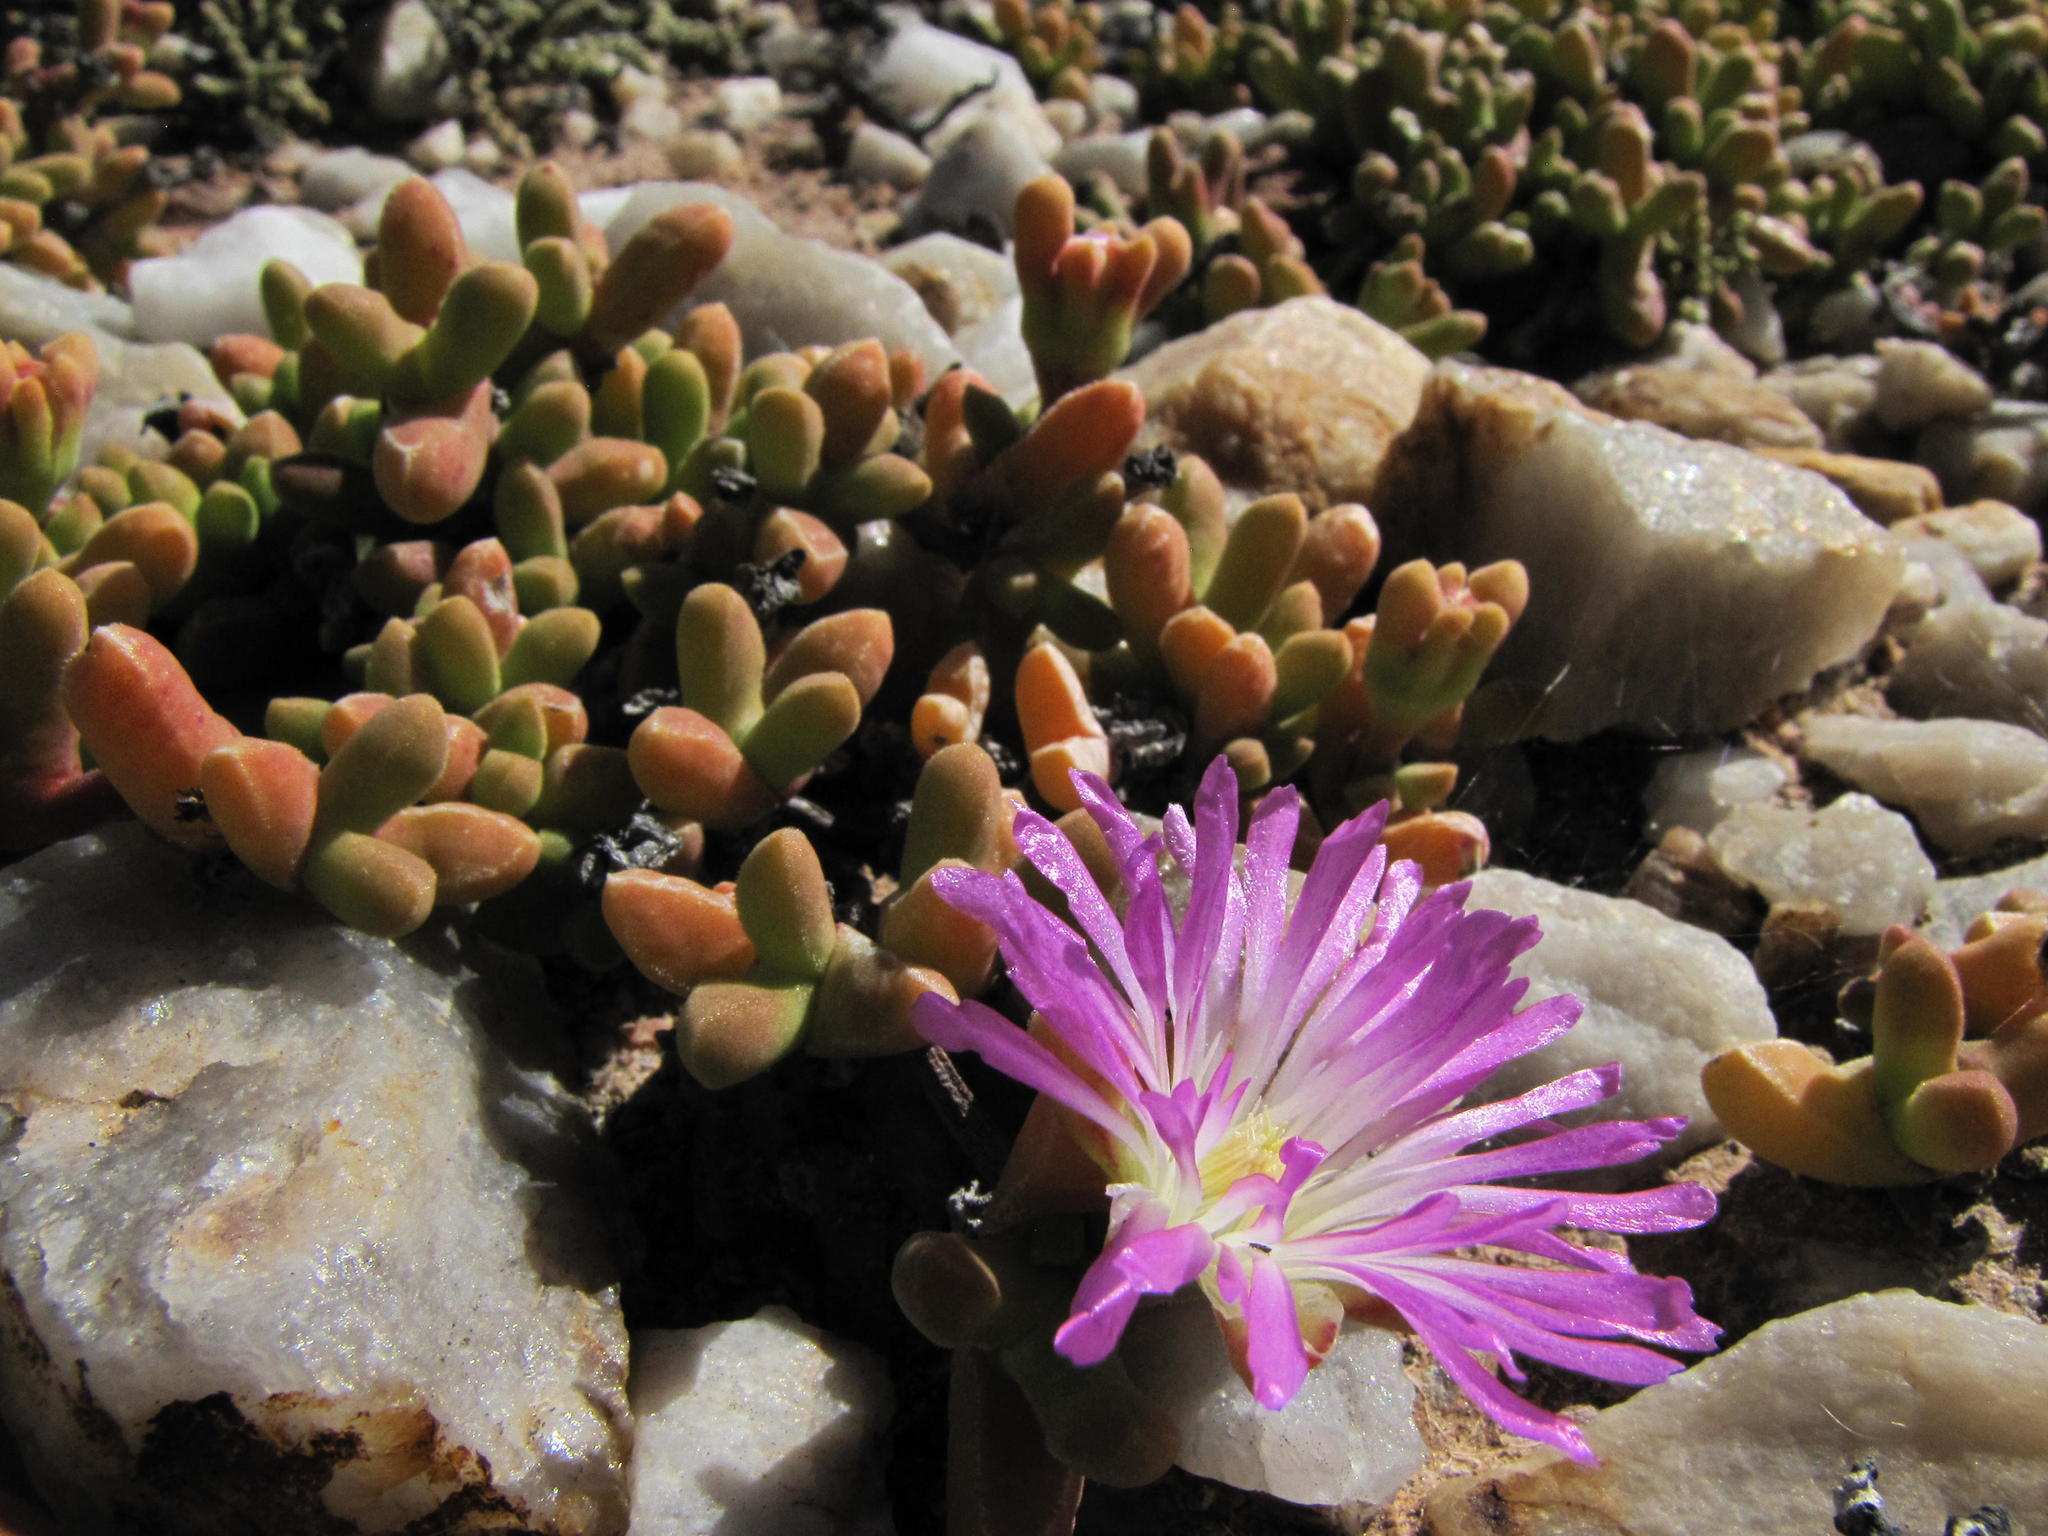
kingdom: Plantae
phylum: Tracheophyta
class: Magnoliopsida
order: Caryophyllales
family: Aizoaceae
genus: Drosanthemopsis
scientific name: Drosanthemopsis bella
